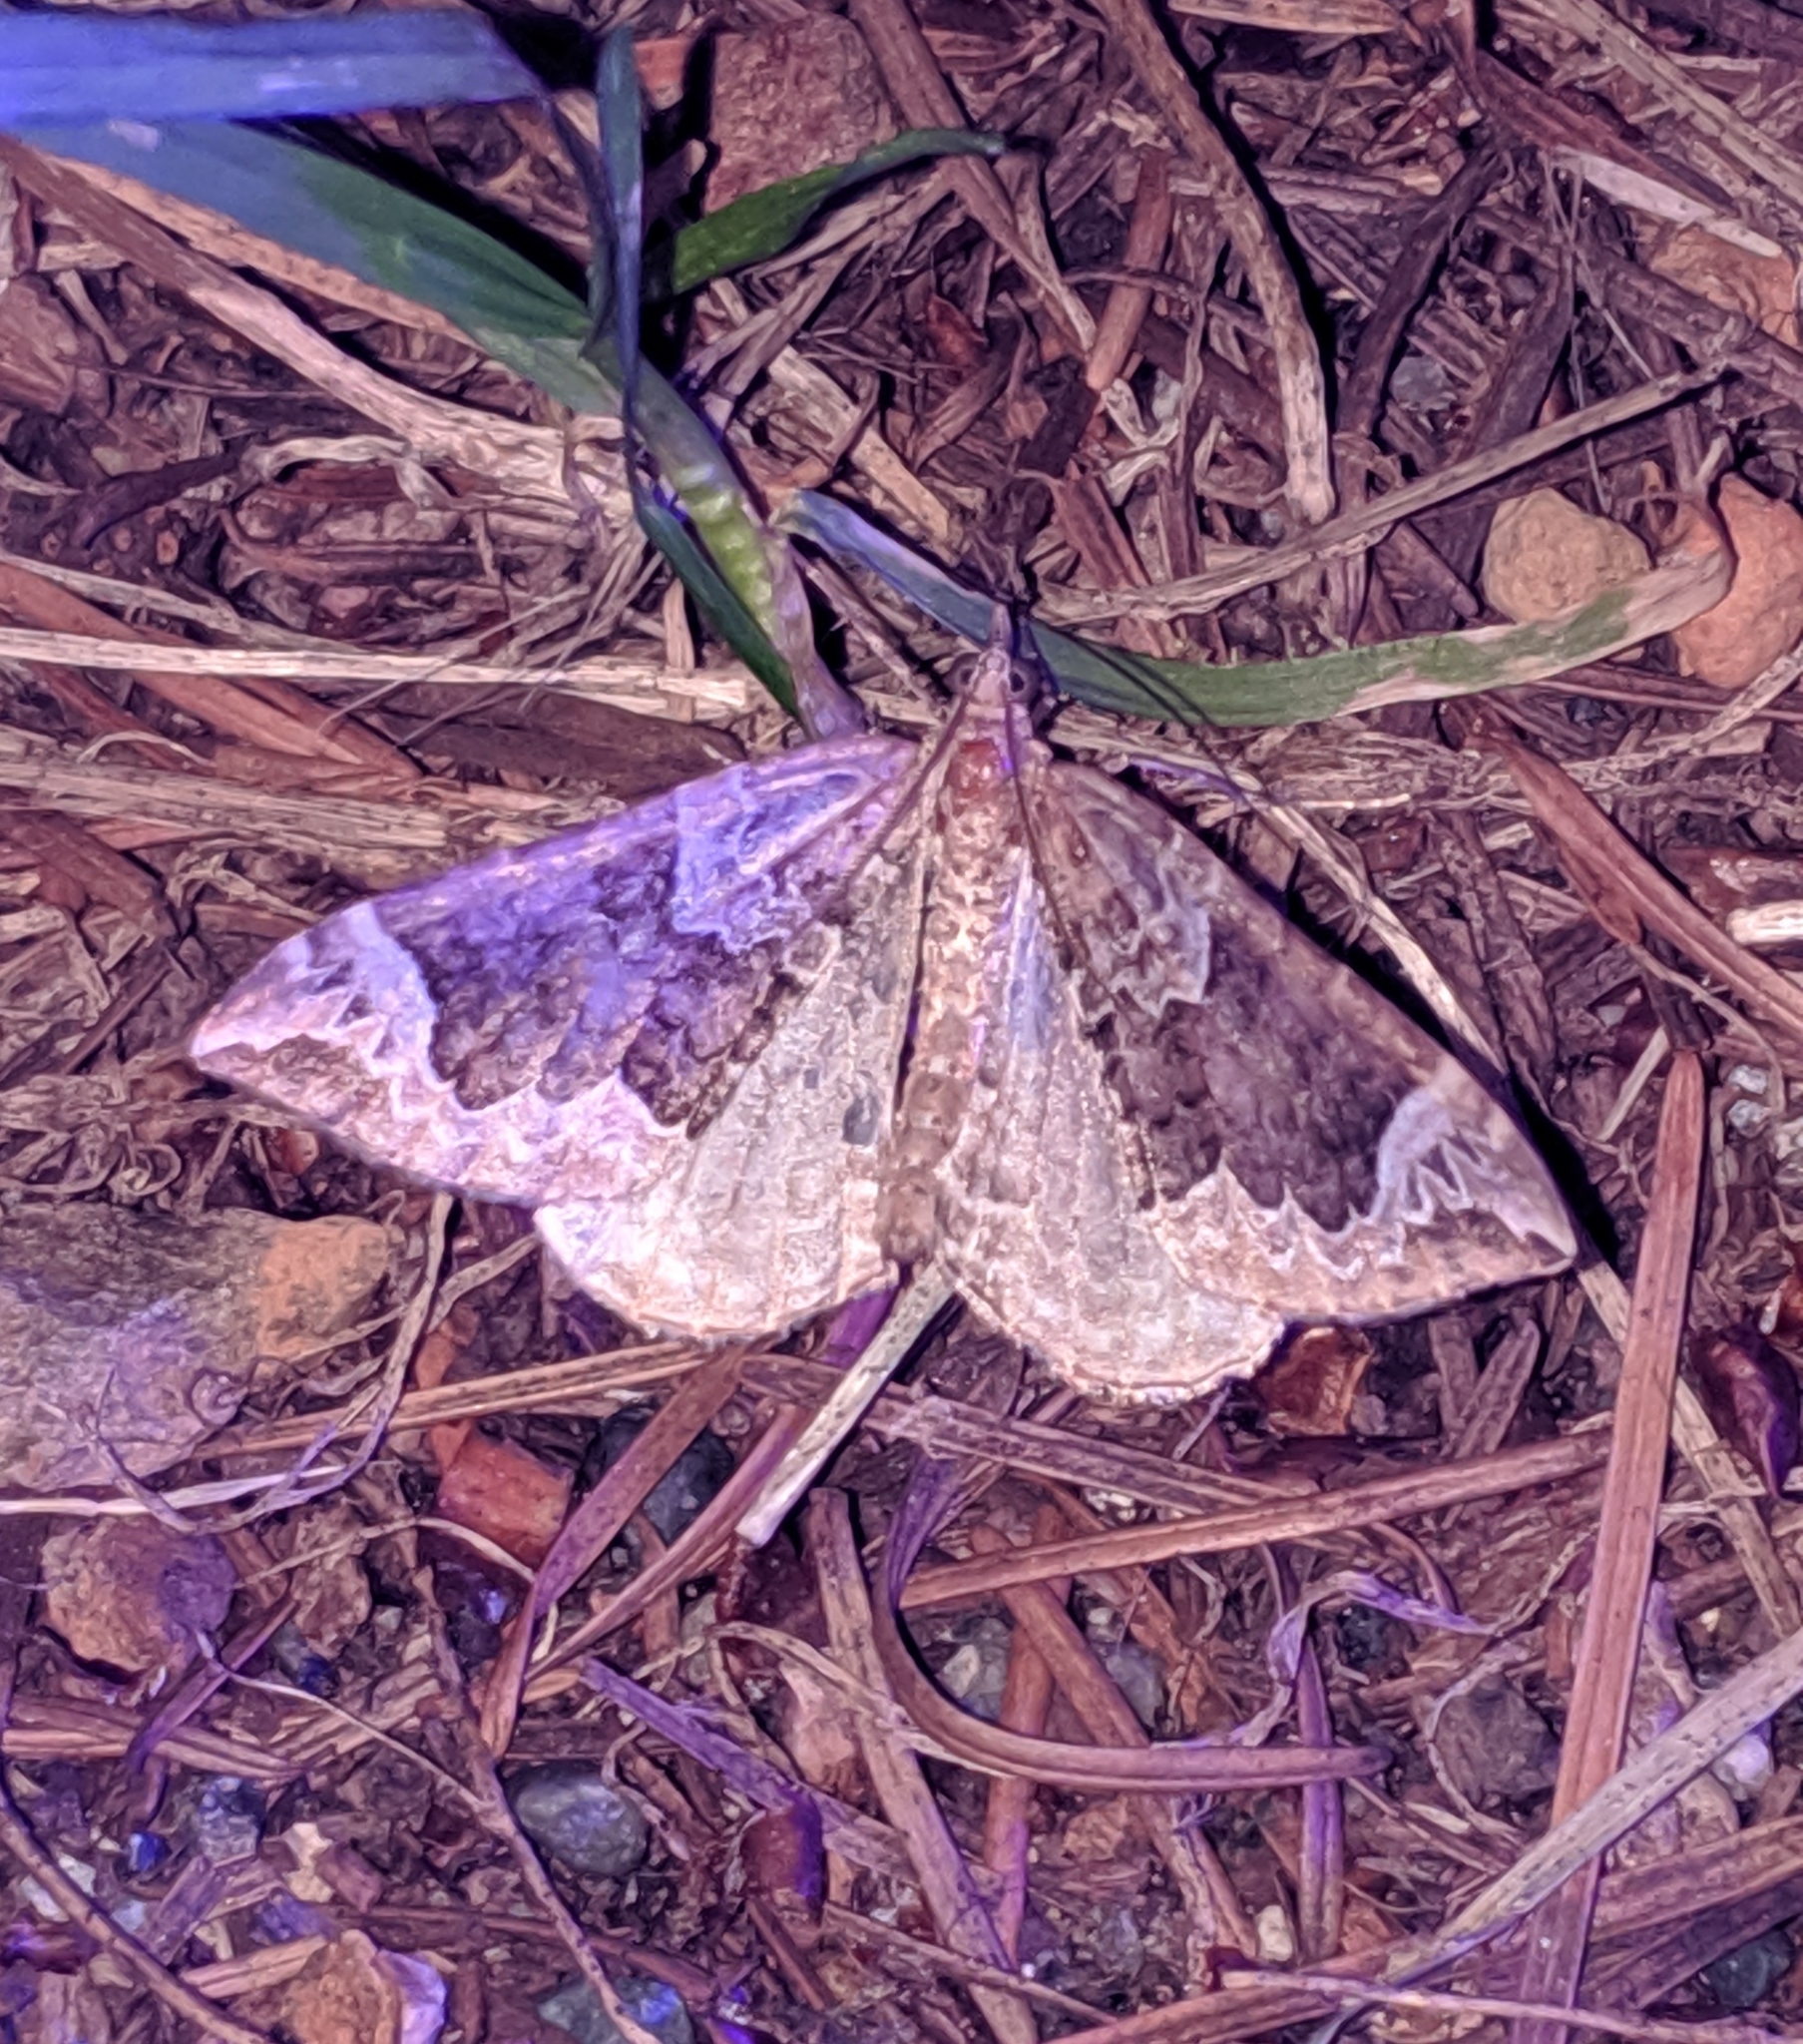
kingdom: Animalia
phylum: Arthropoda
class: Insecta
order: Lepidoptera
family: Geometridae
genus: Eulithis
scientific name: Eulithis xylina
